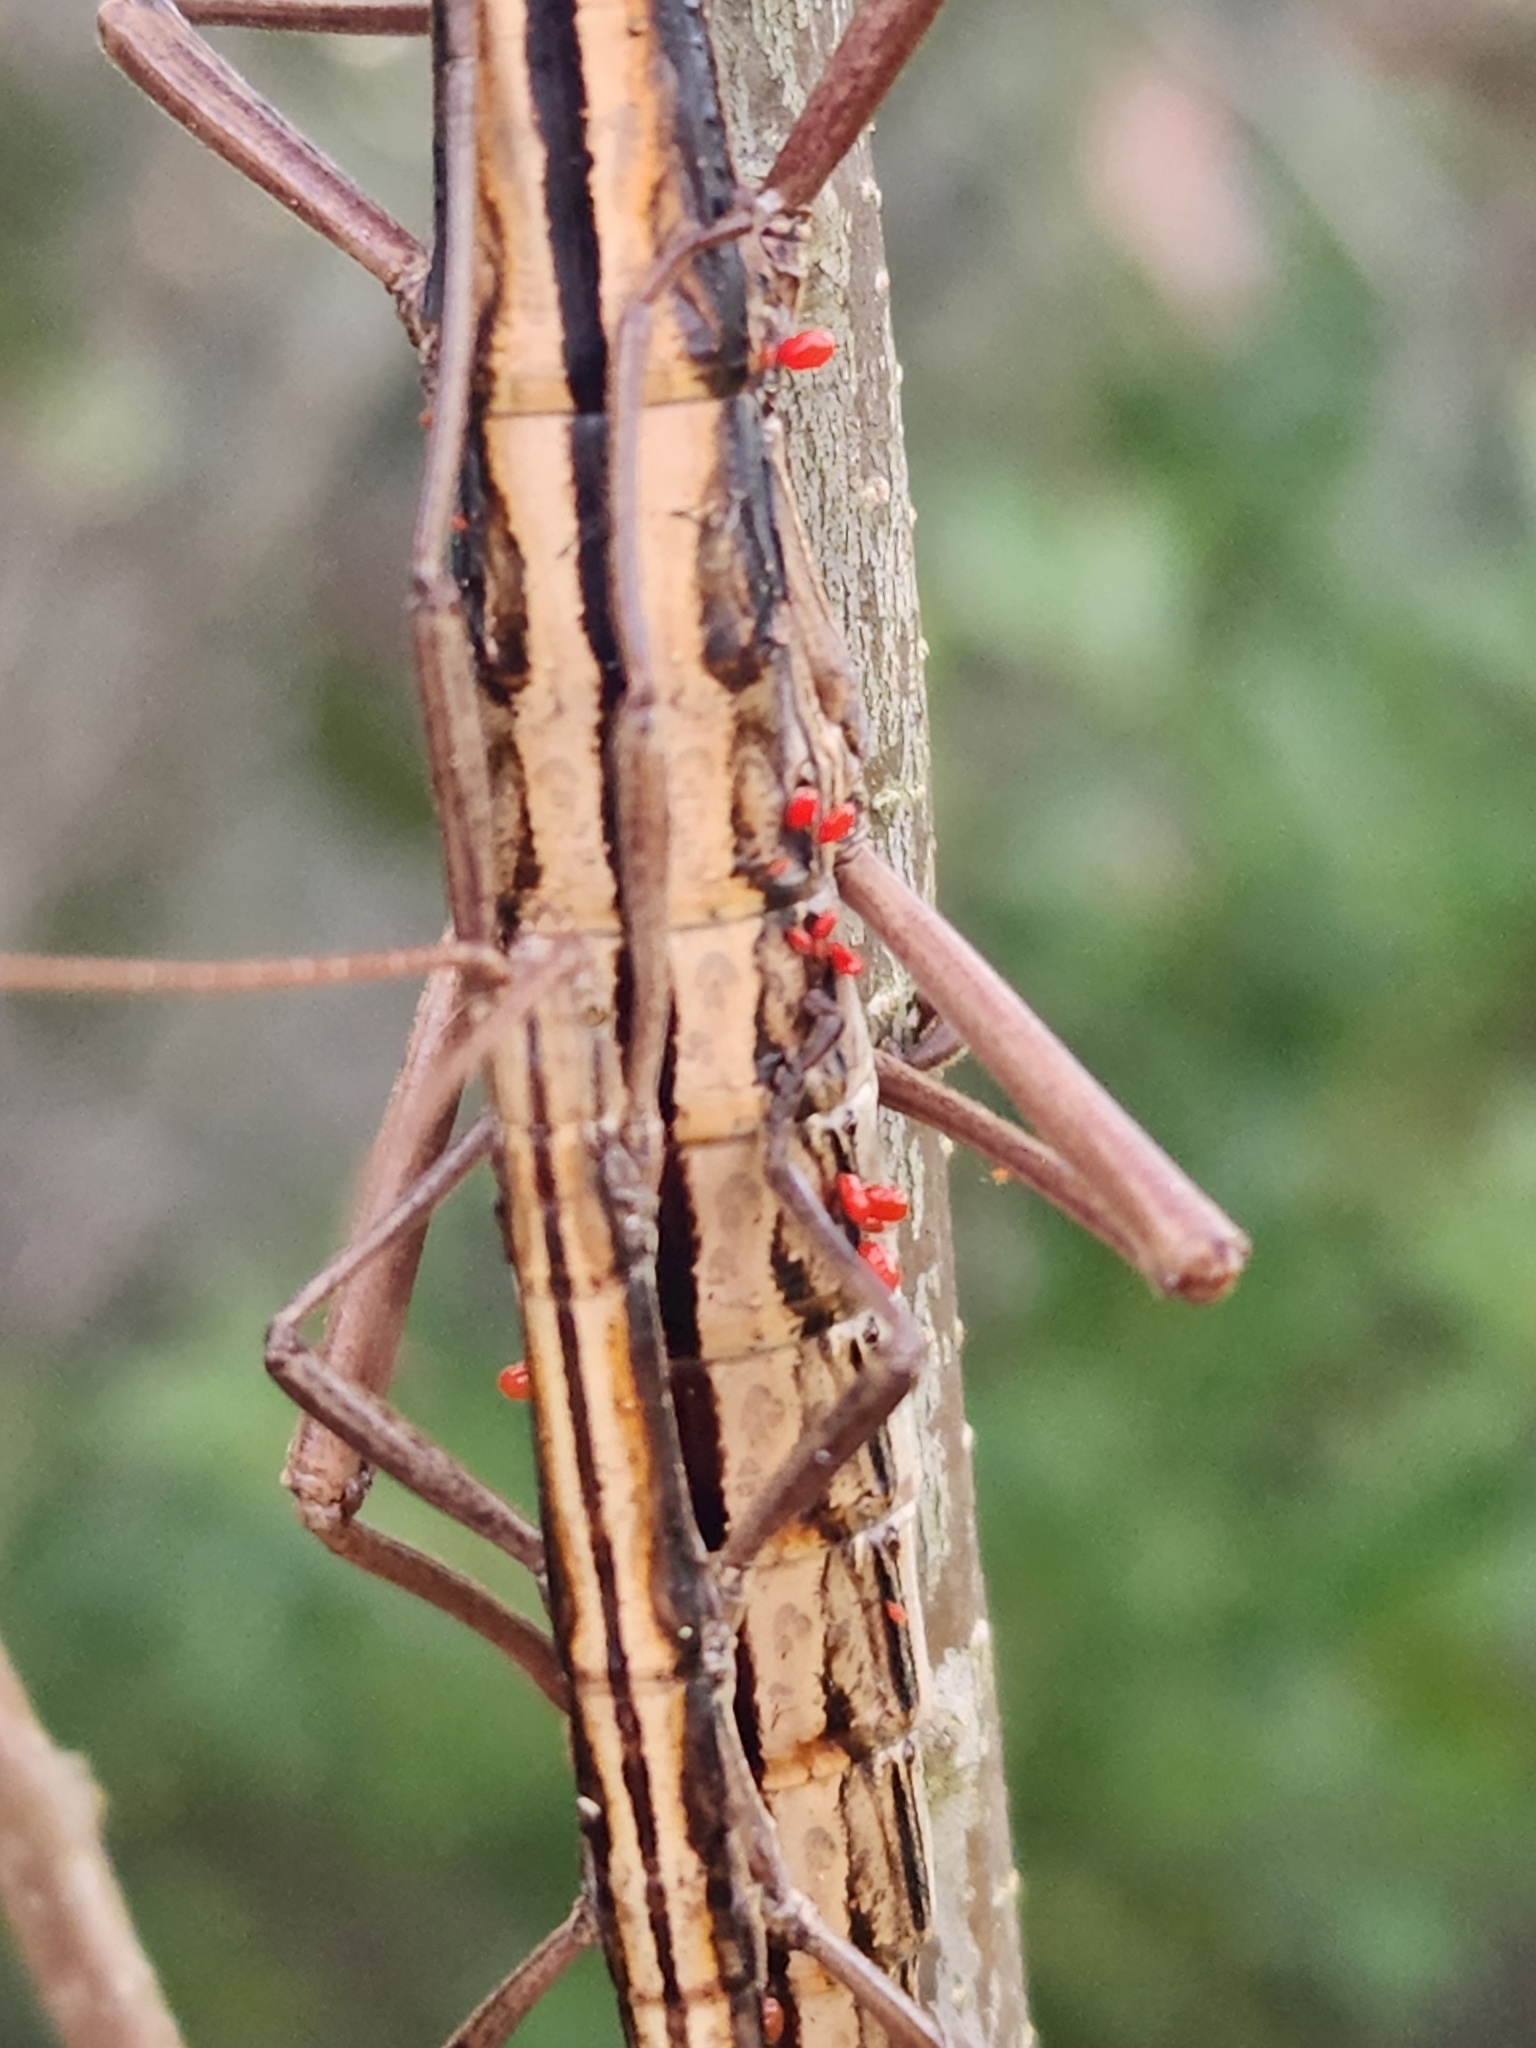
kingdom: Animalia
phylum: Arthropoda
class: Insecta
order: Phasmida
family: Pseudophasmatidae
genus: Anisomorpha
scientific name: Anisomorpha buprestoides
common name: Florida stick insect
